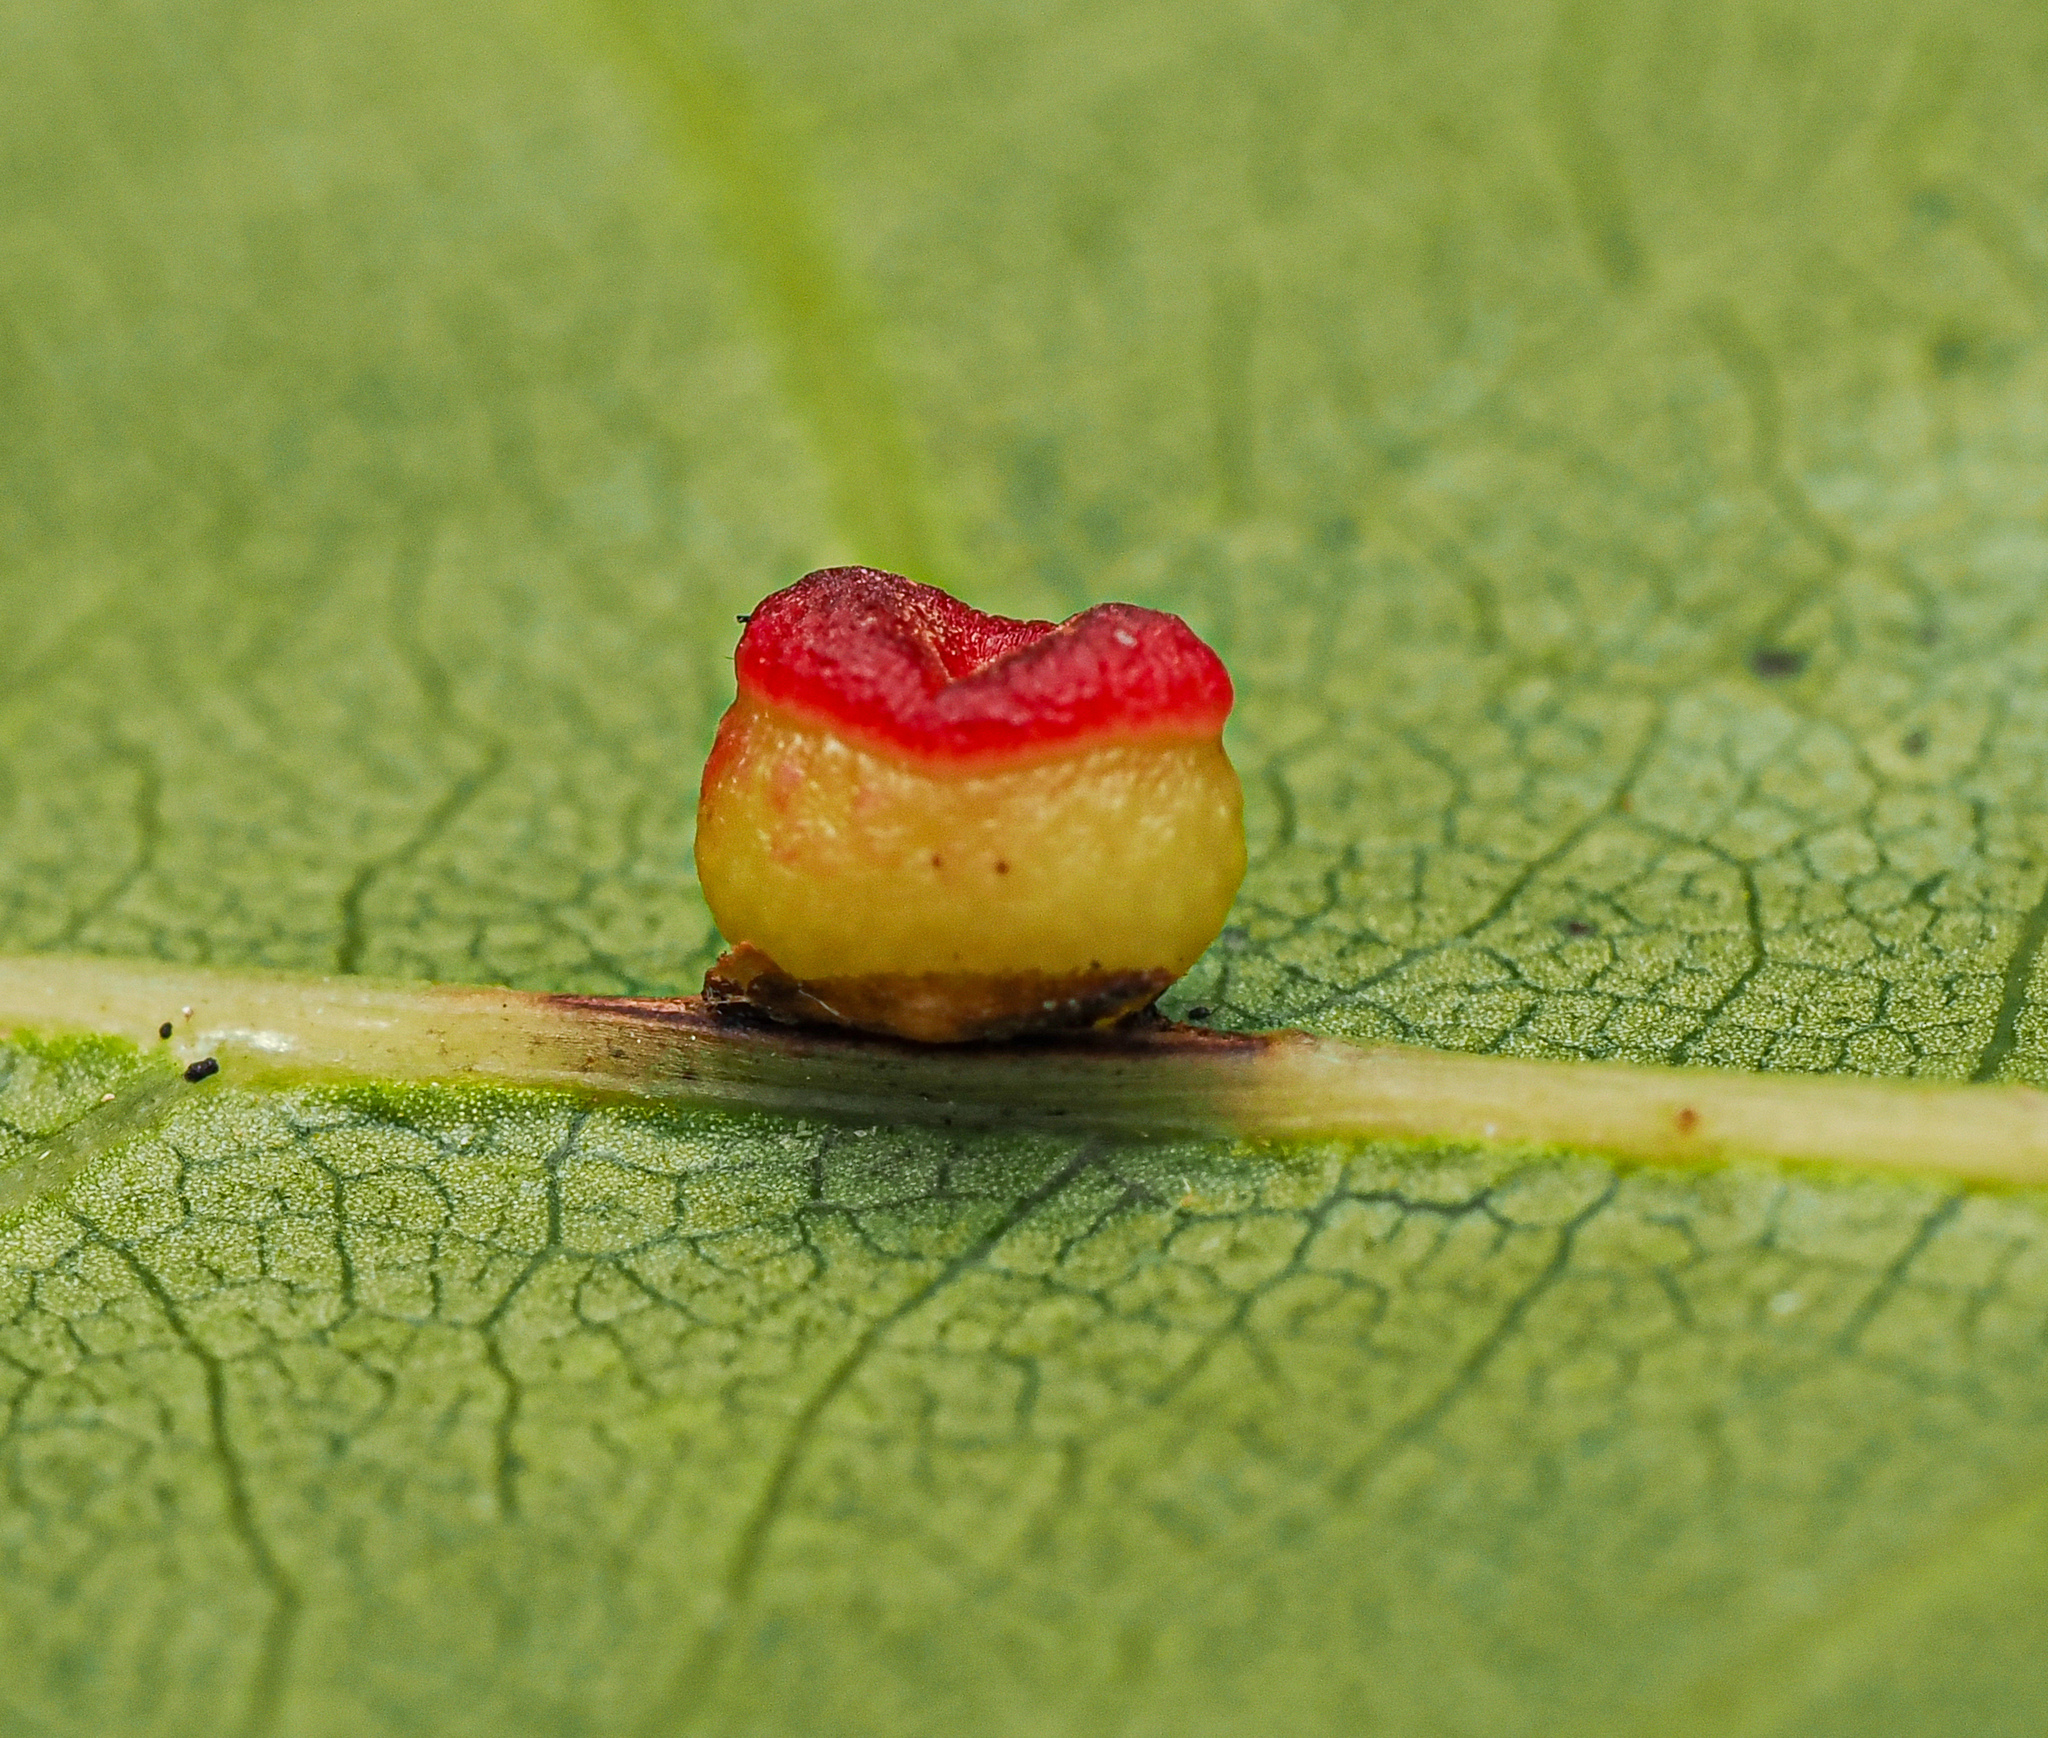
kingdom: Animalia
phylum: Arthropoda
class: Insecta
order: Hymenoptera
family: Cynipidae
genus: Kokkocynips
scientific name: Kokkocynips rileyi
